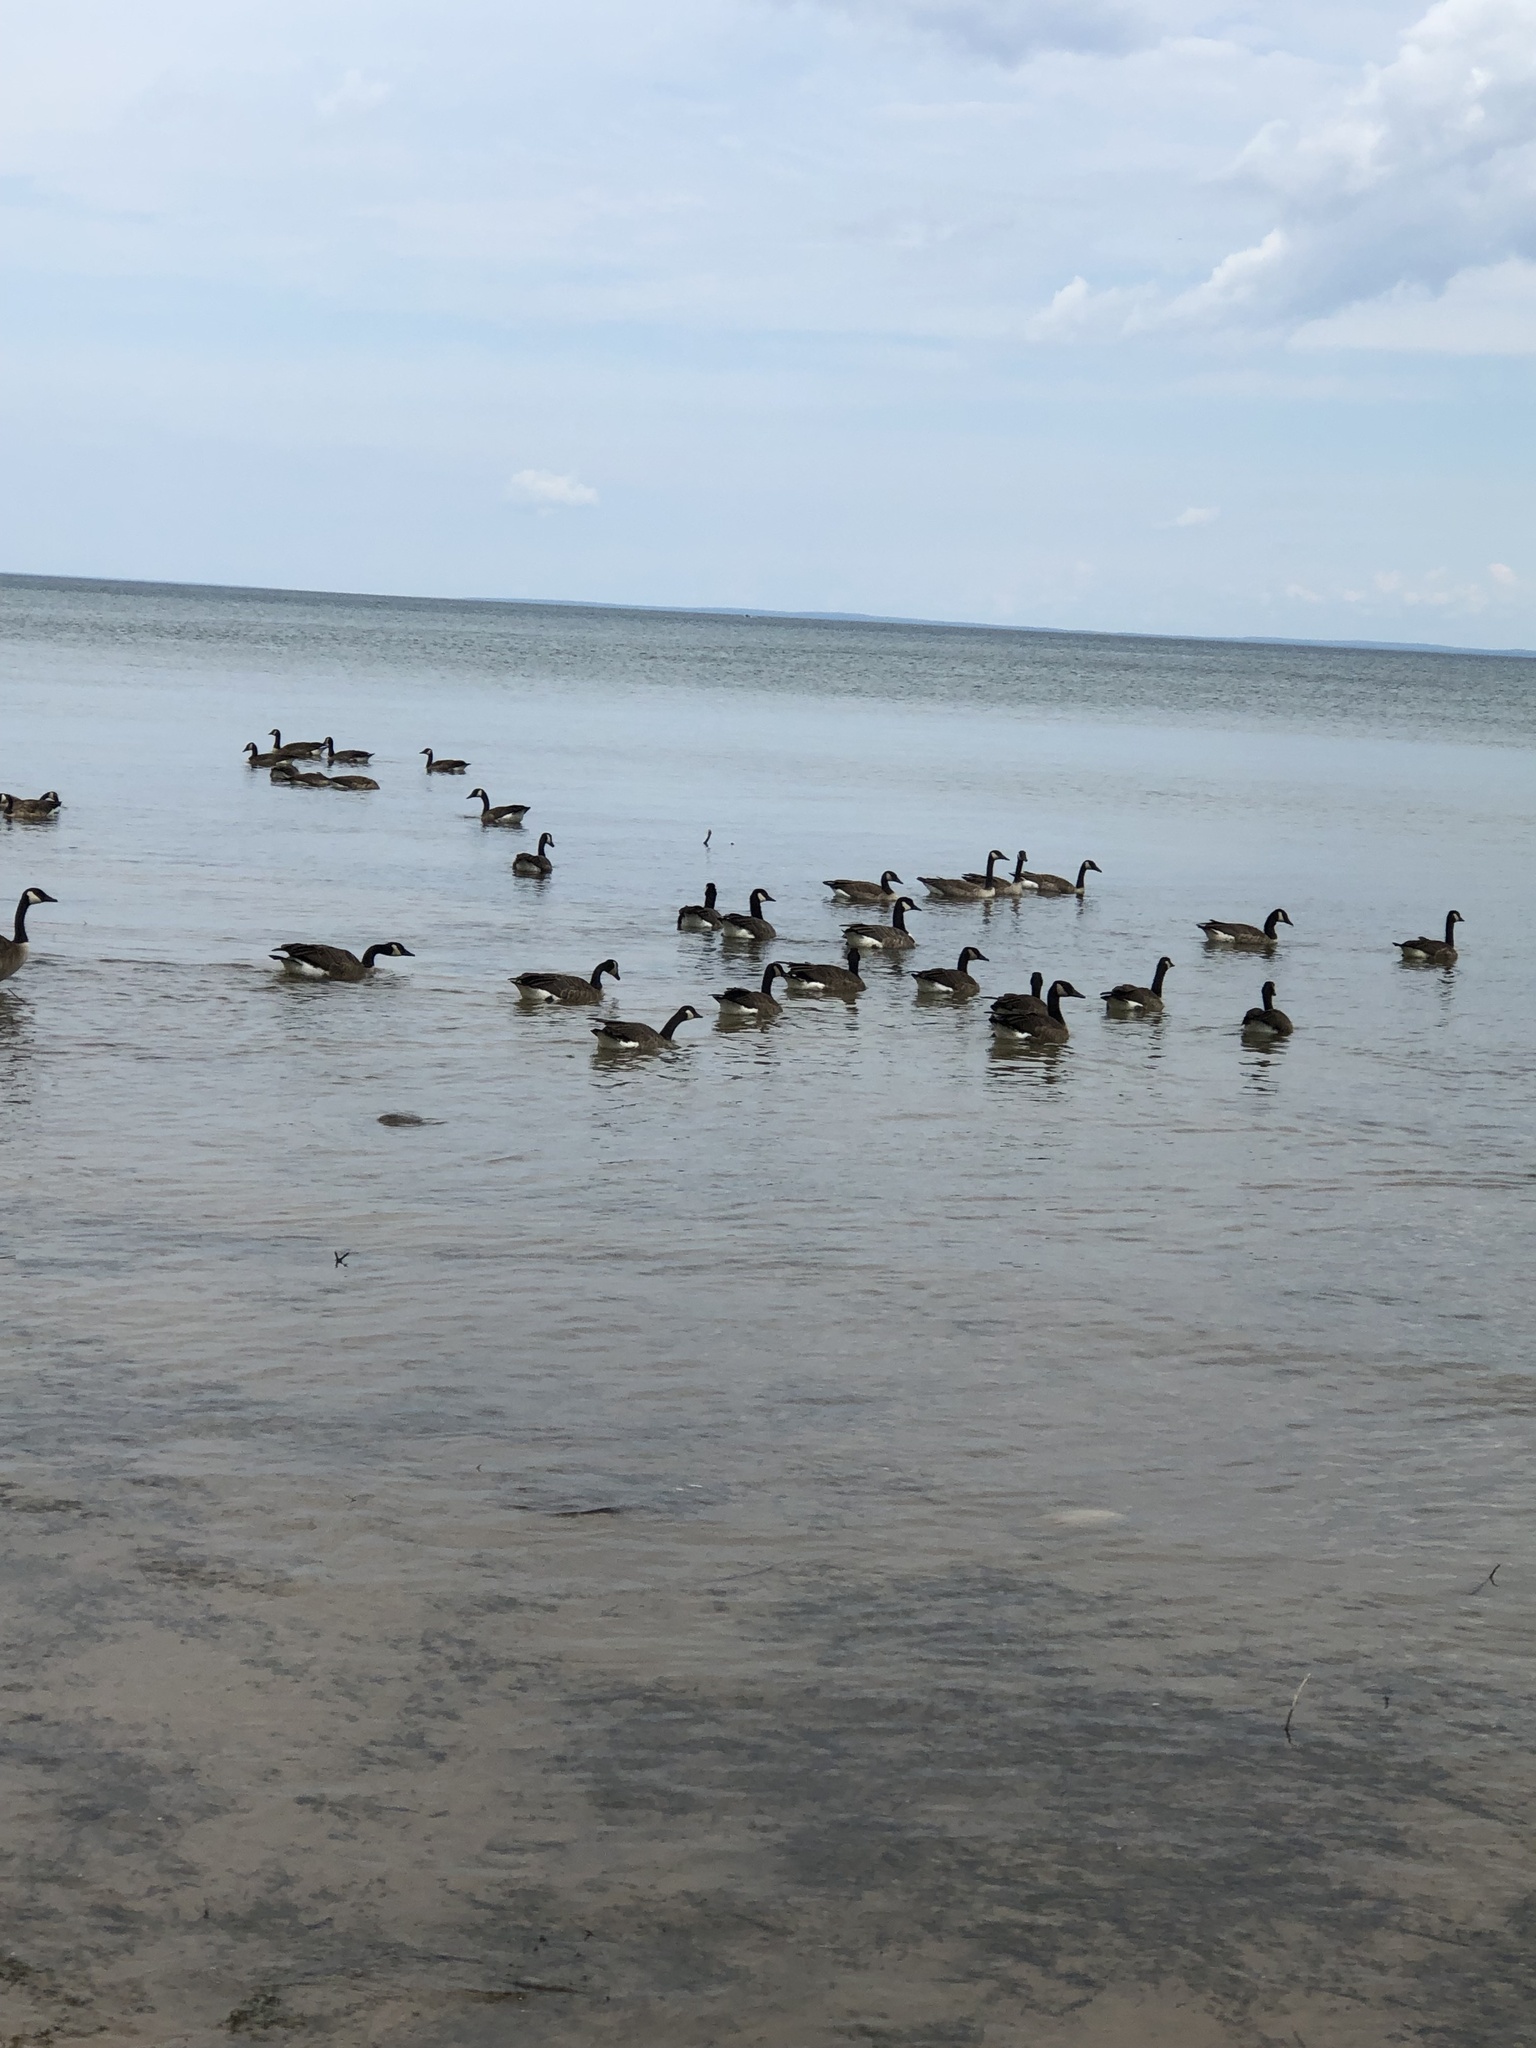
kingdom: Animalia
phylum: Chordata
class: Aves
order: Anseriformes
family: Anatidae
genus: Branta
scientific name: Branta canadensis
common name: Canada goose
